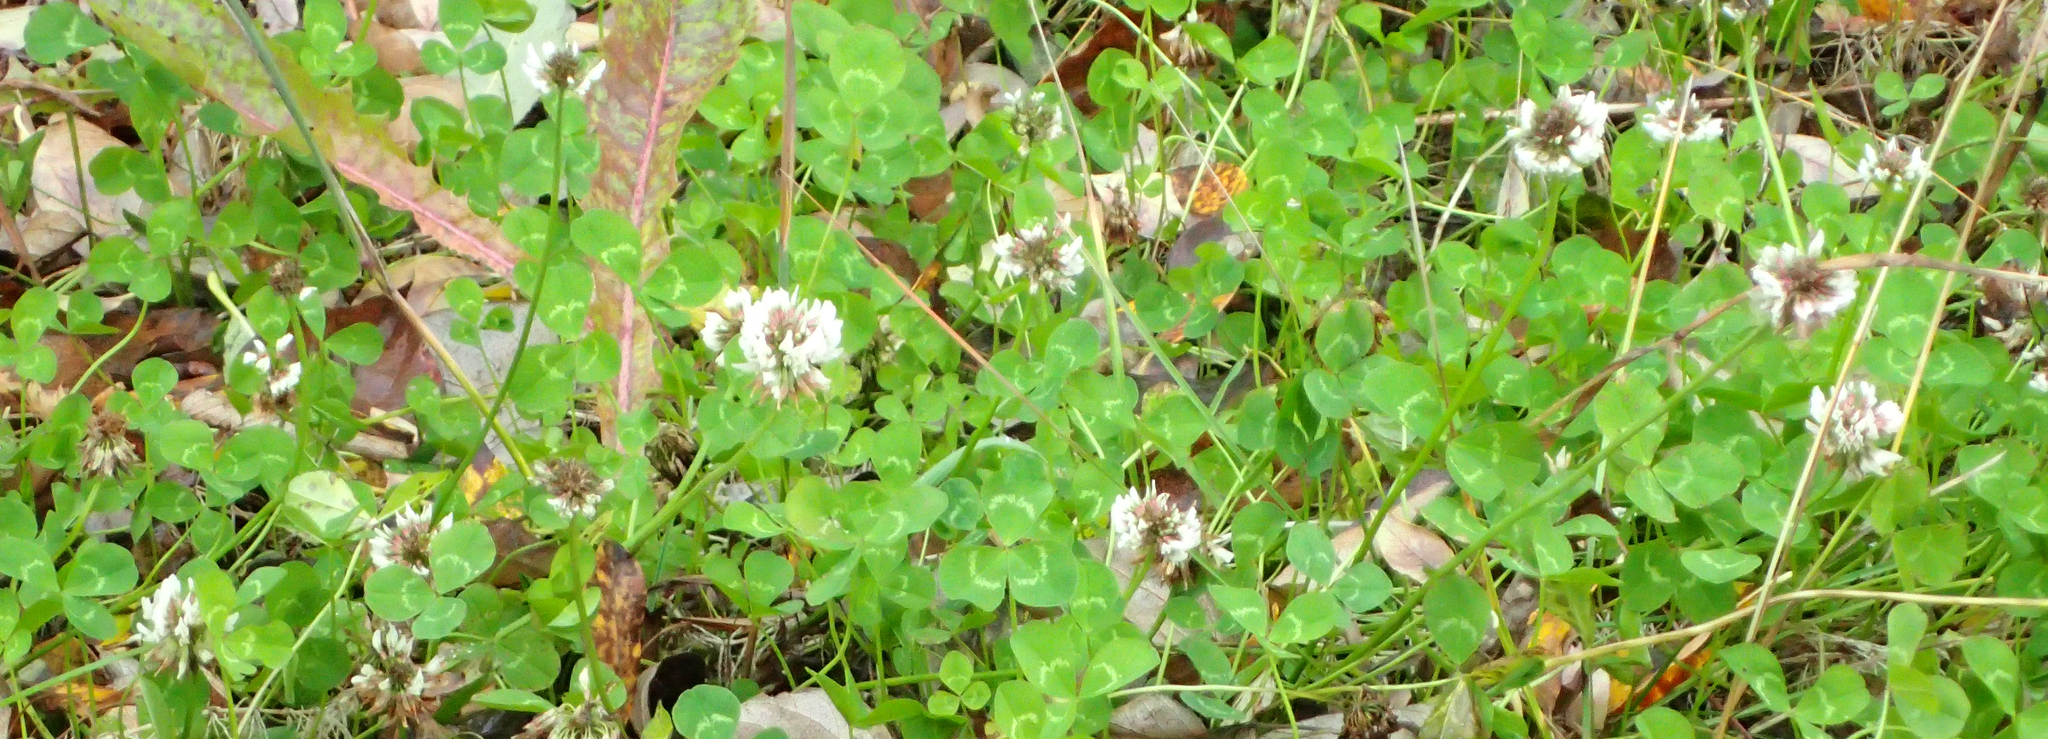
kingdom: Plantae
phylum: Tracheophyta
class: Magnoliopsida
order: Fabales
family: Fabaceae
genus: Trifolium
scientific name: Trifolium repens
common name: White clover
